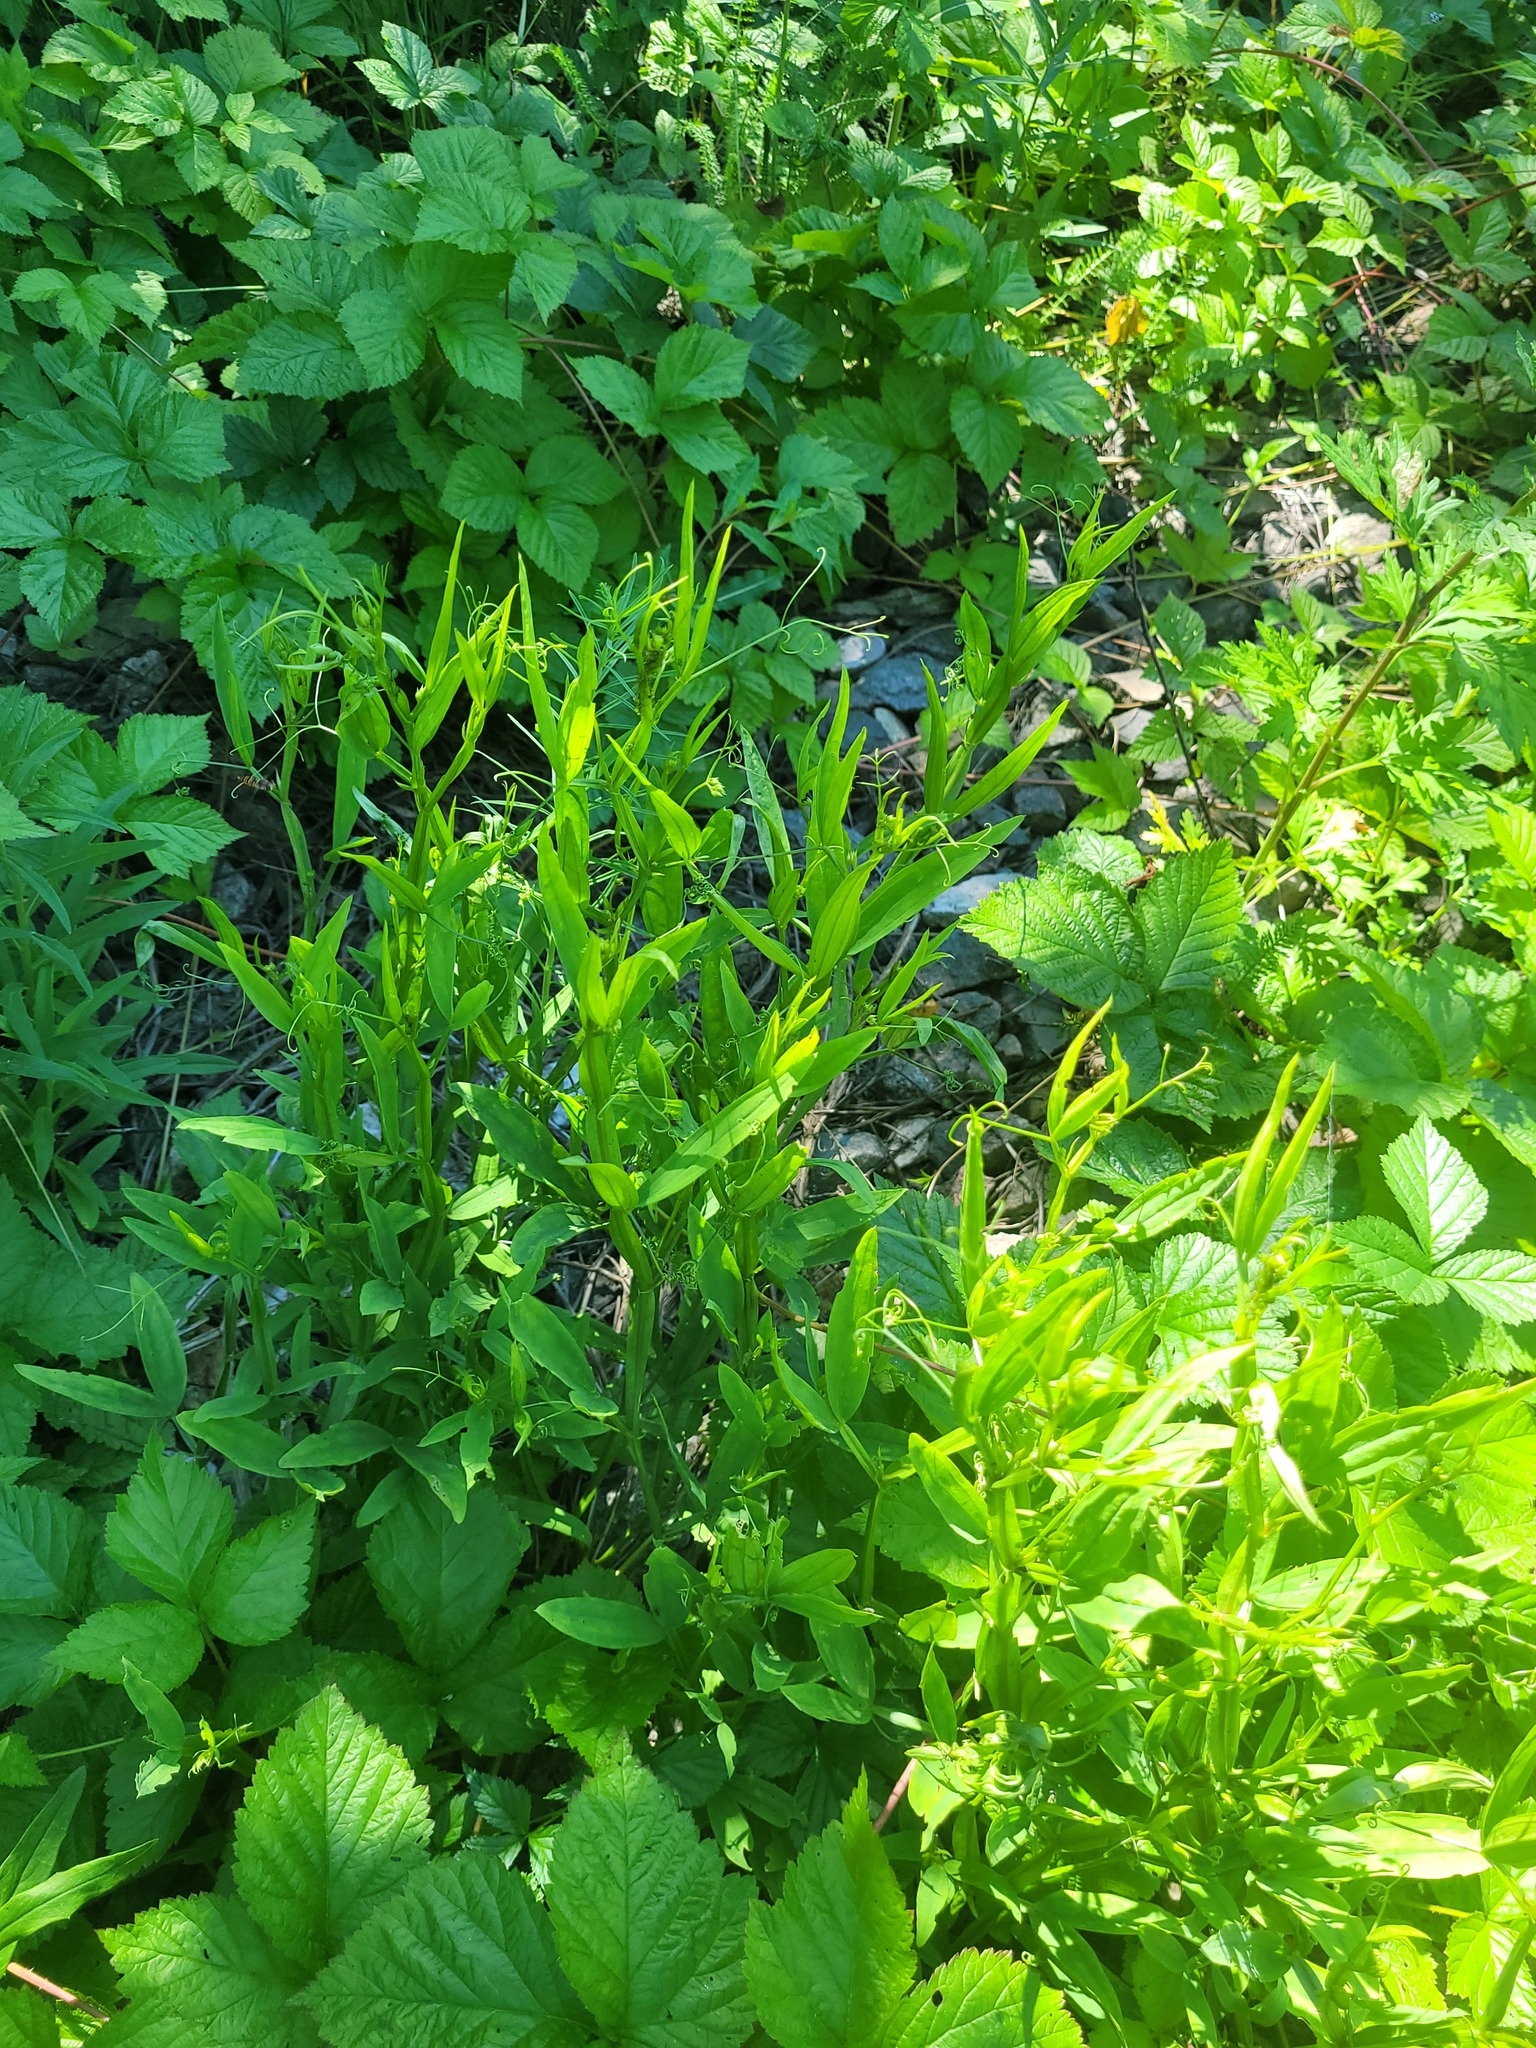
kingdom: Plantae
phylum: Tracheophyta
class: Magnoliopsida
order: Fabales
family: Fabaceae
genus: Lathyrus
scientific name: Lathyrus sylvestris
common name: Flat pea
